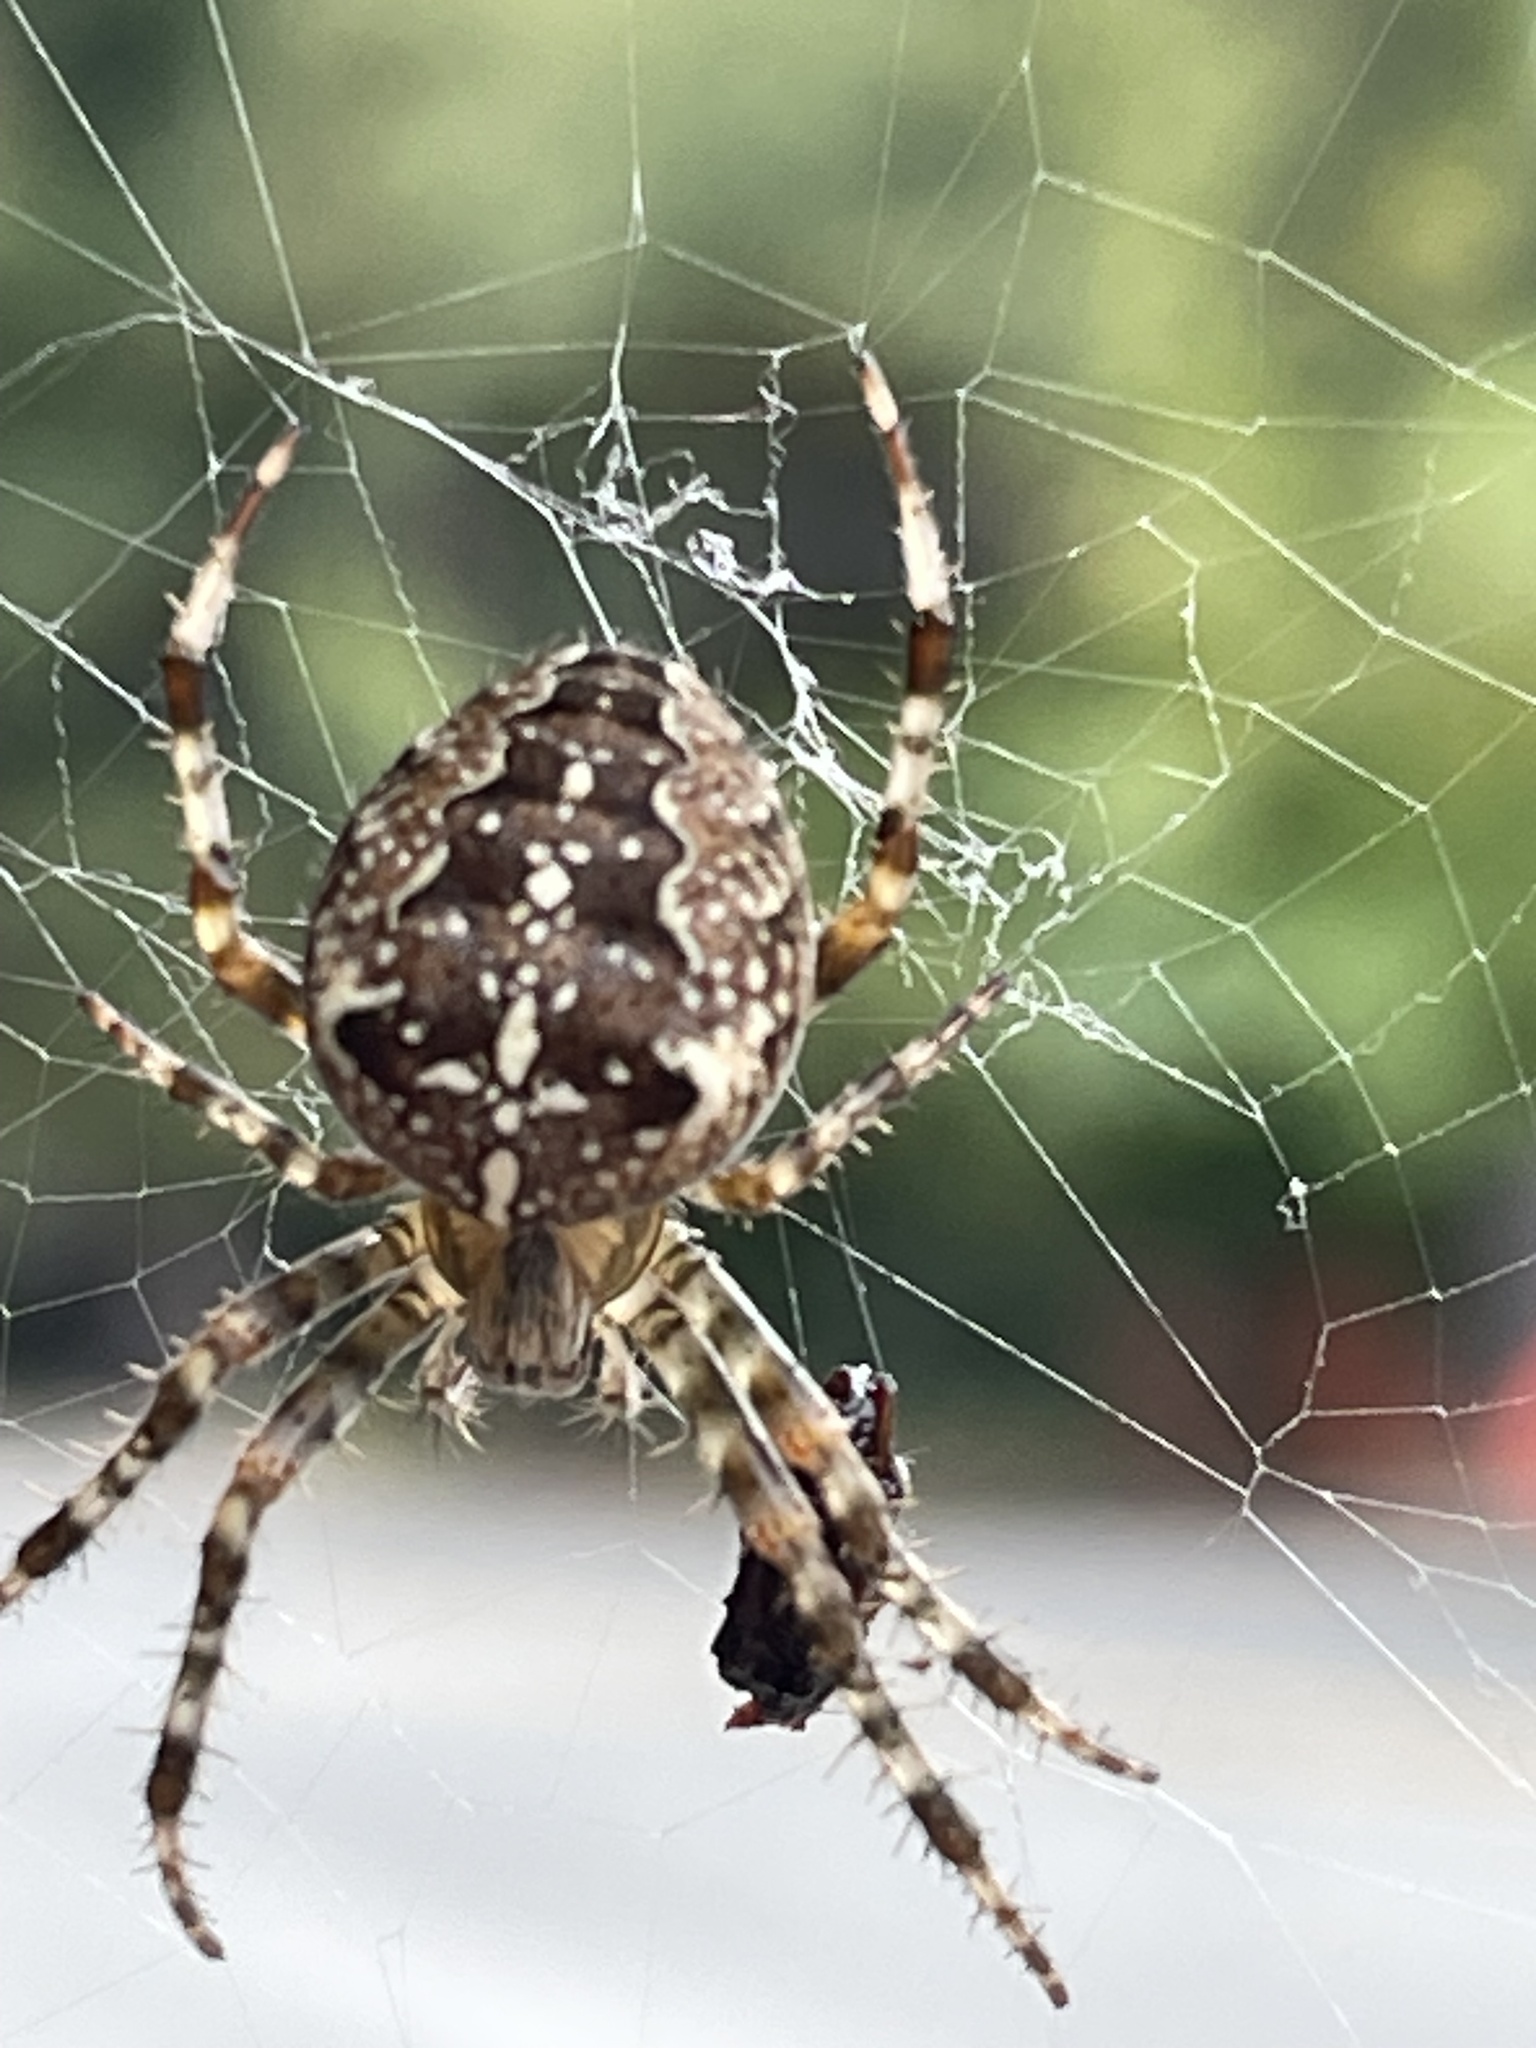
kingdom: Animalia
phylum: Arthropoda
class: Arachnida
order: Araneae
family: Araneidae
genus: Araneus
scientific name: Araneus diadematus
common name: Cross orbweaver
